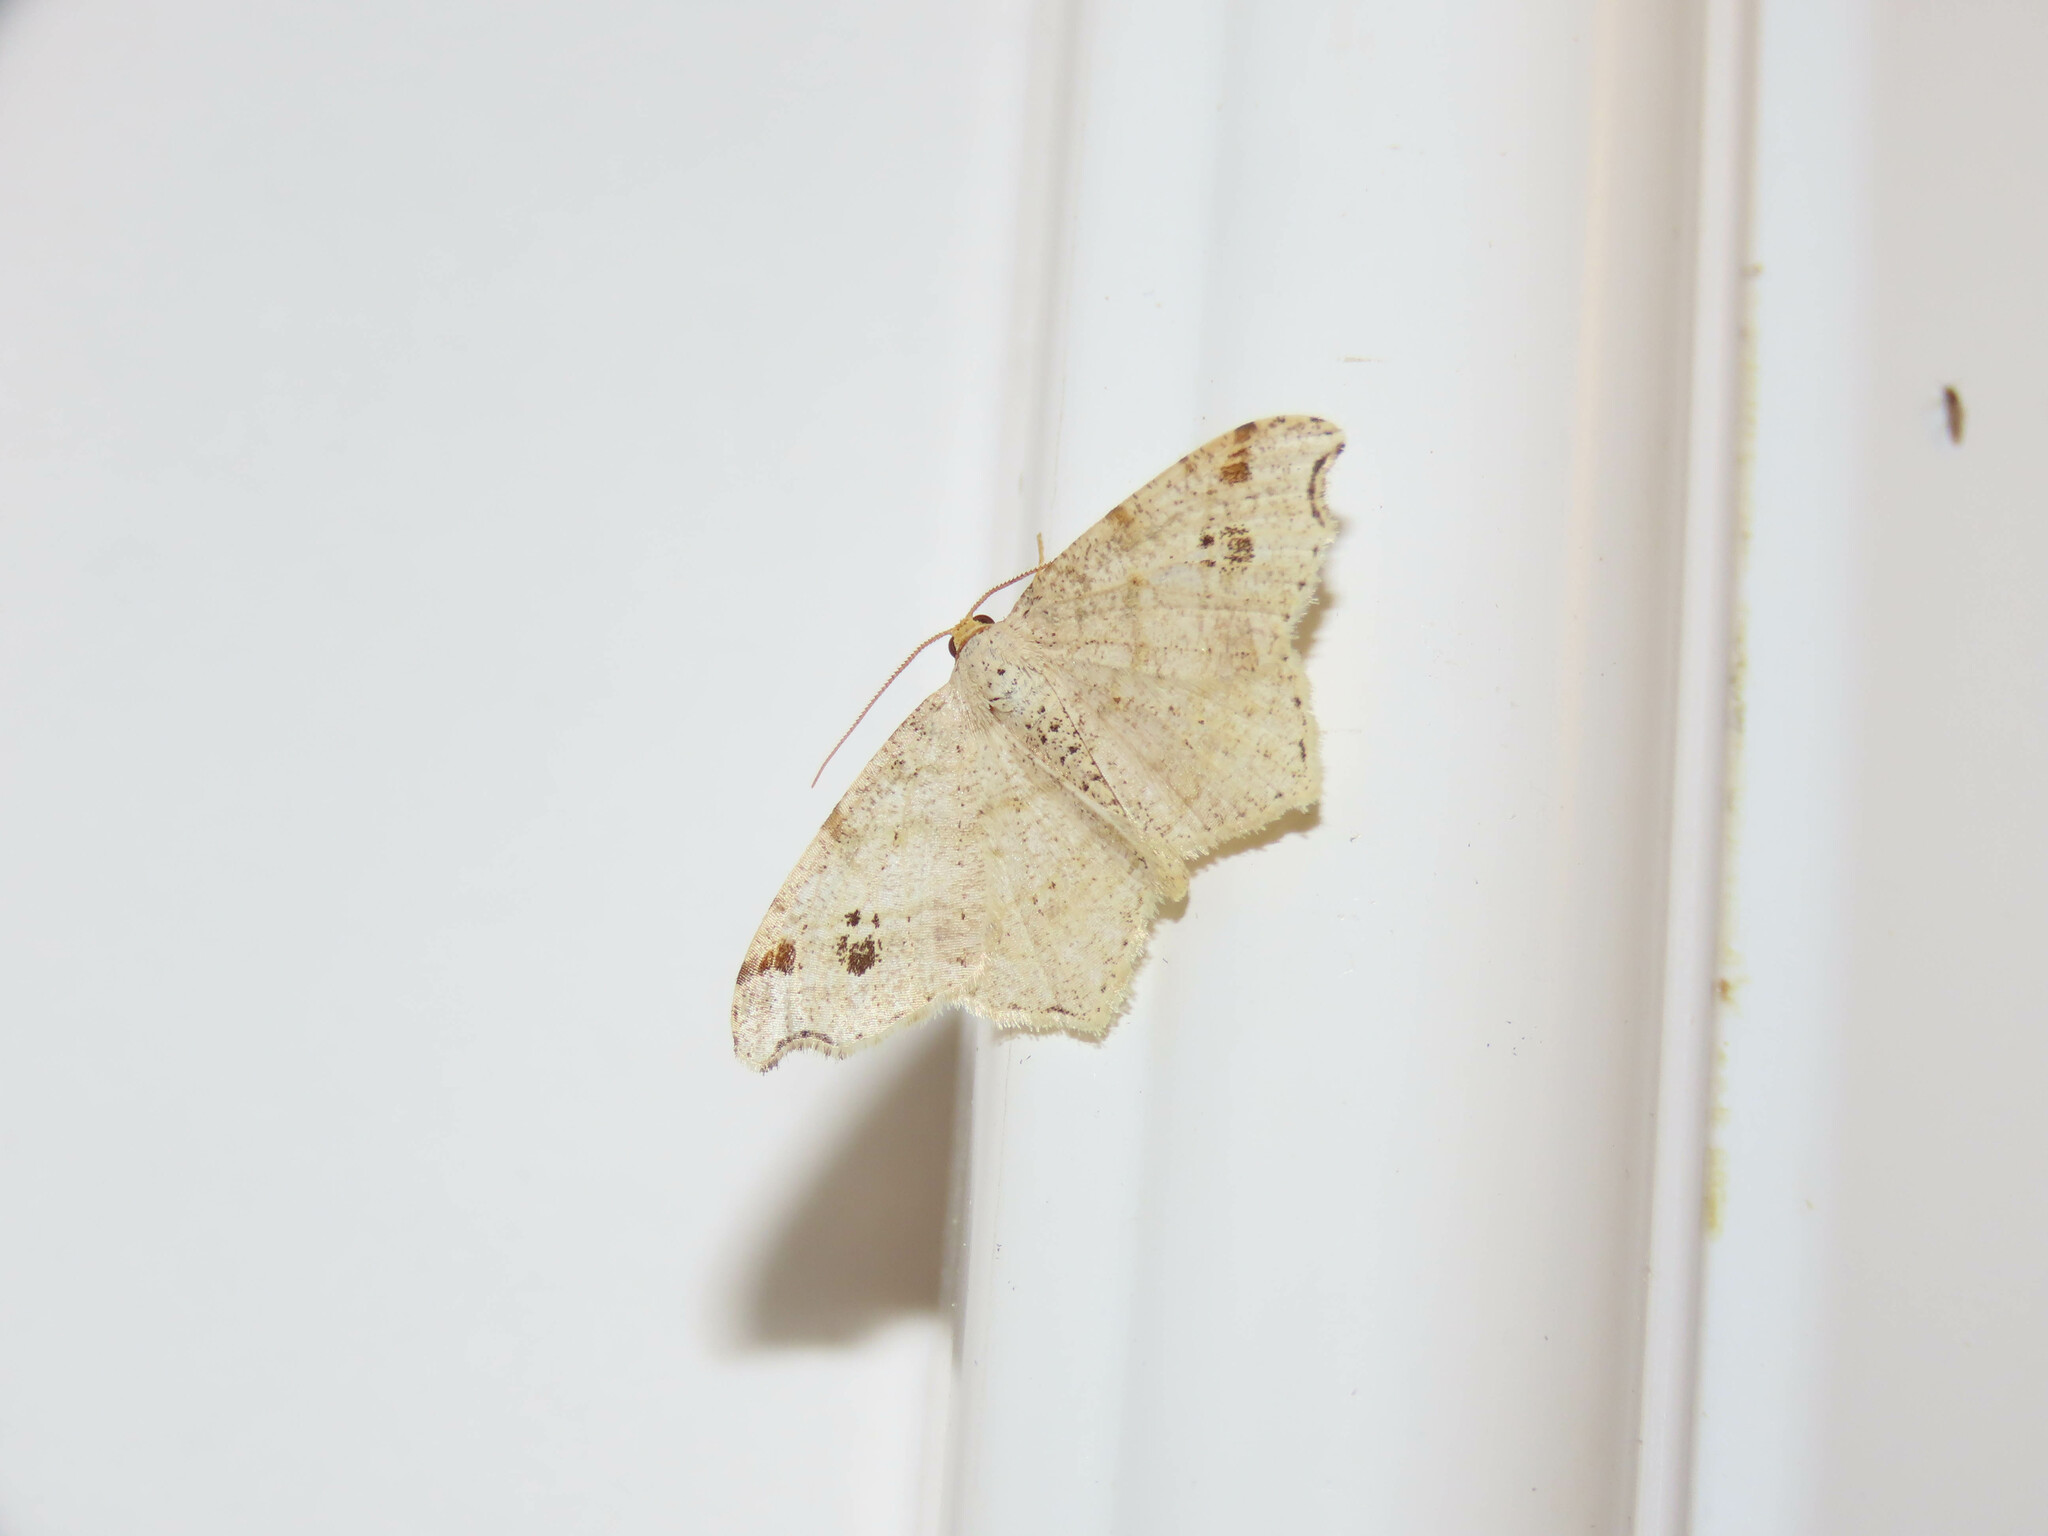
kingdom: Animalia
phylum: Arthropoda
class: Insecta
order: Lepidoptera
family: Geometridae
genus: Macaria
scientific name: Macaria aemulataria
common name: Common angle
